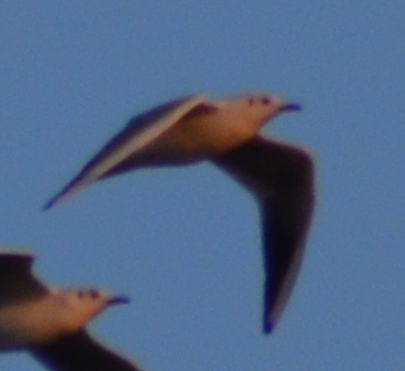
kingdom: Animalia
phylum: Chordata
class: Aves
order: Charadriiformes
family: Laridae
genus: Chroicocephalus
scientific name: Chroicocephalus ridibundus
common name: Black-headed gull
